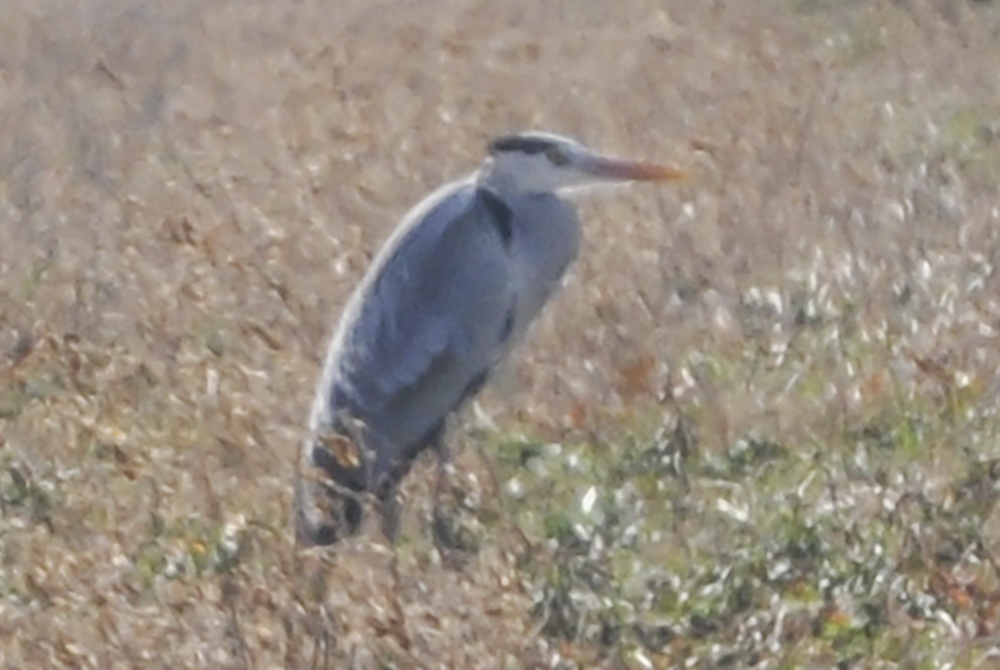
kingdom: Animalia
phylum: Chordata
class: Aves
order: Pelecaniformes
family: Ardeidae
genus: Ardea
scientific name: Ardea cinerea
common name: Grey heron
